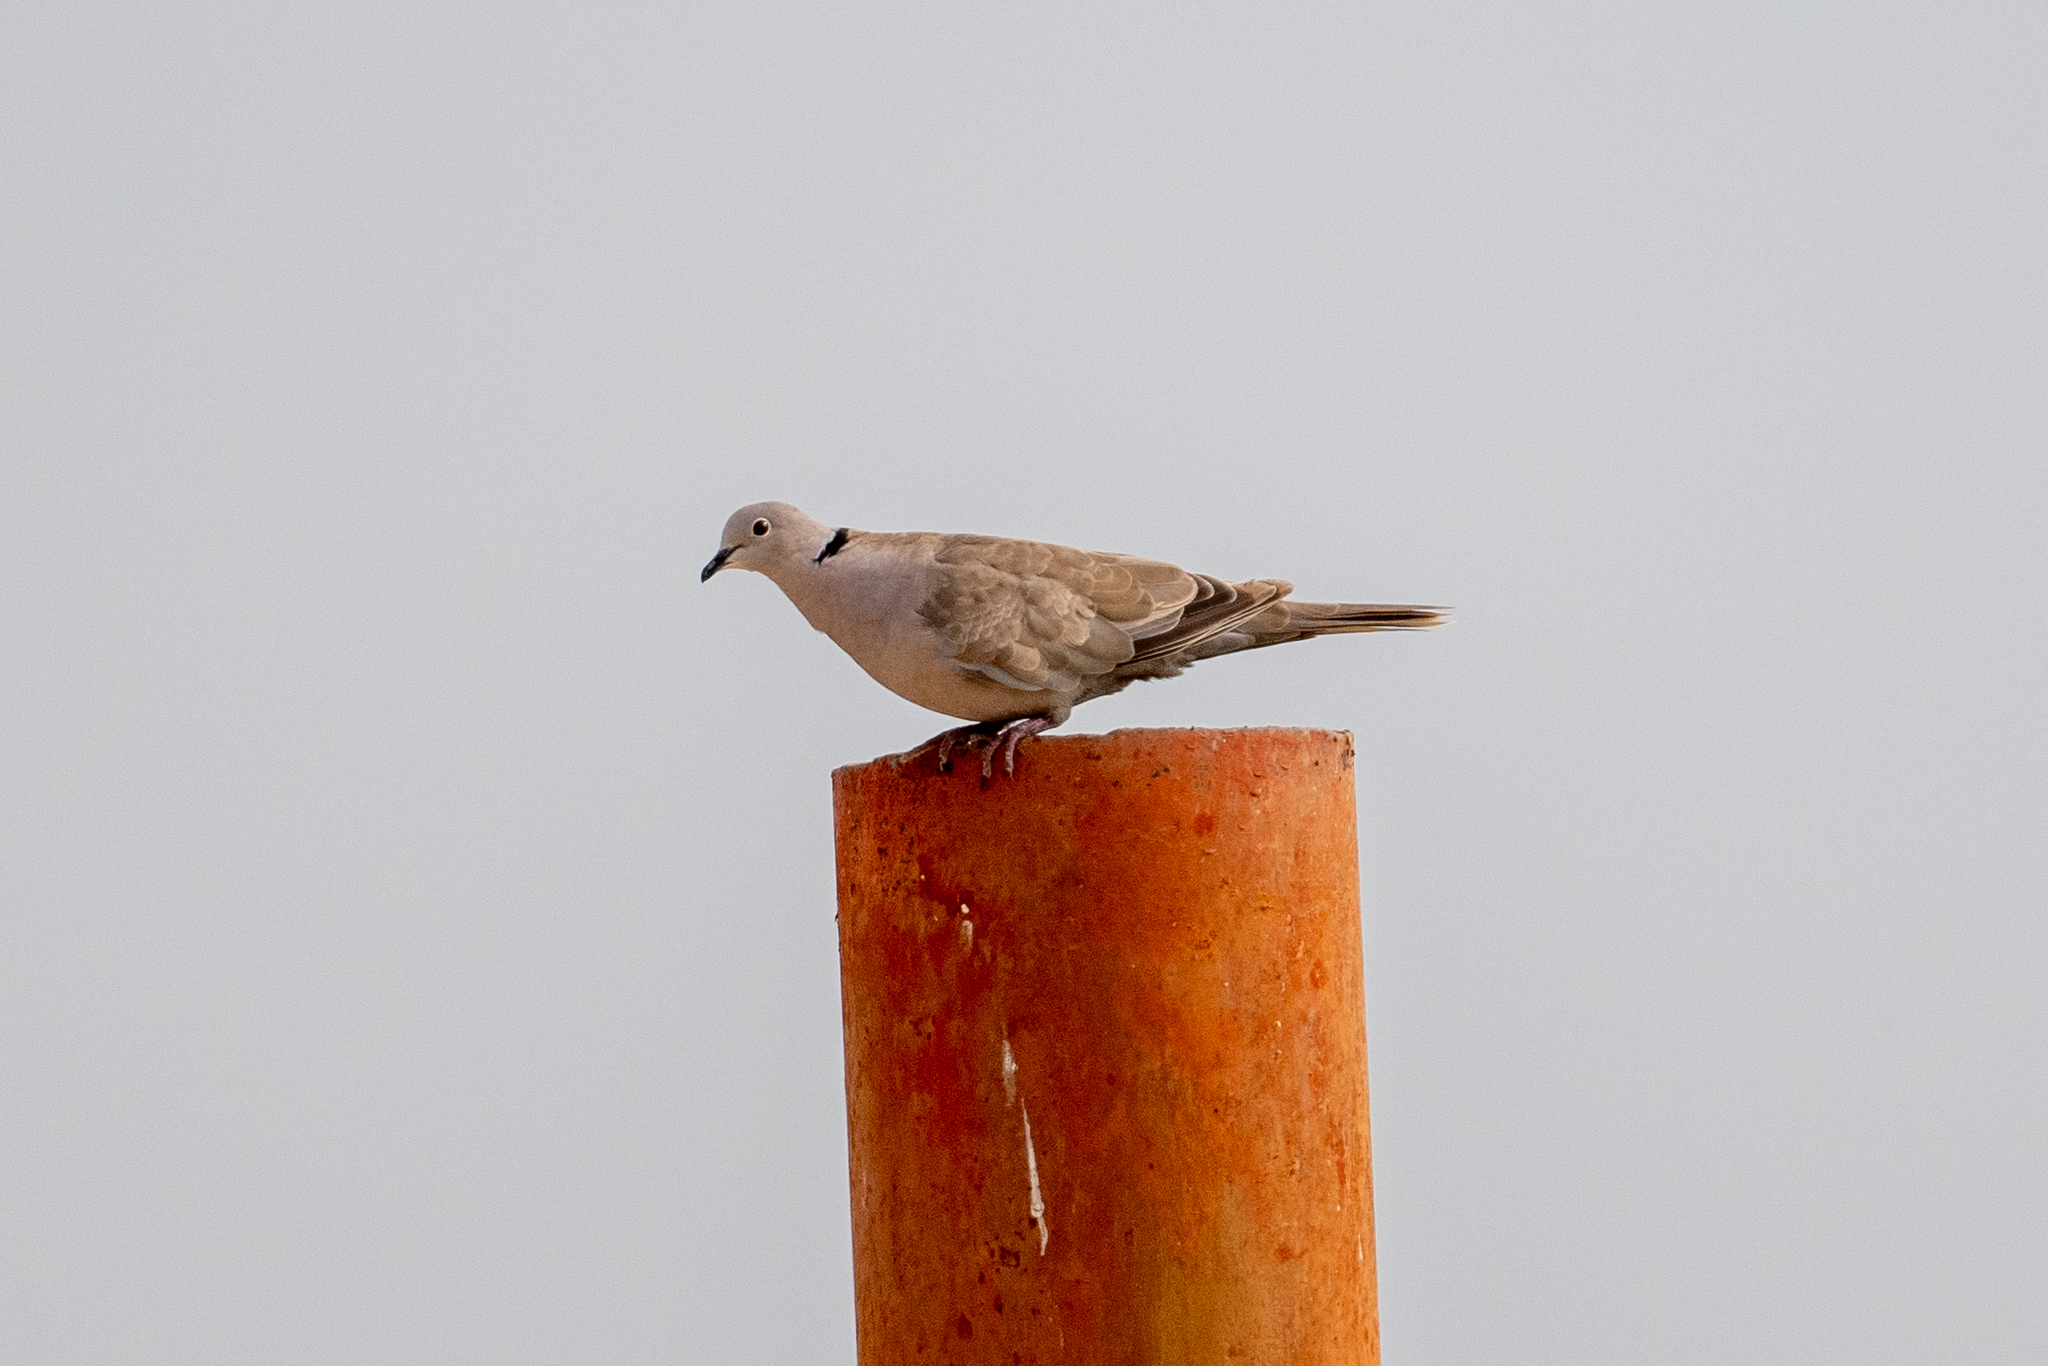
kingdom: Animalia
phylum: Chordata
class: Aves
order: Columbiformes
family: Columbidae
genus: Streptopelia
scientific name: Streptopelia decaocto
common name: Eurasian collared dove
